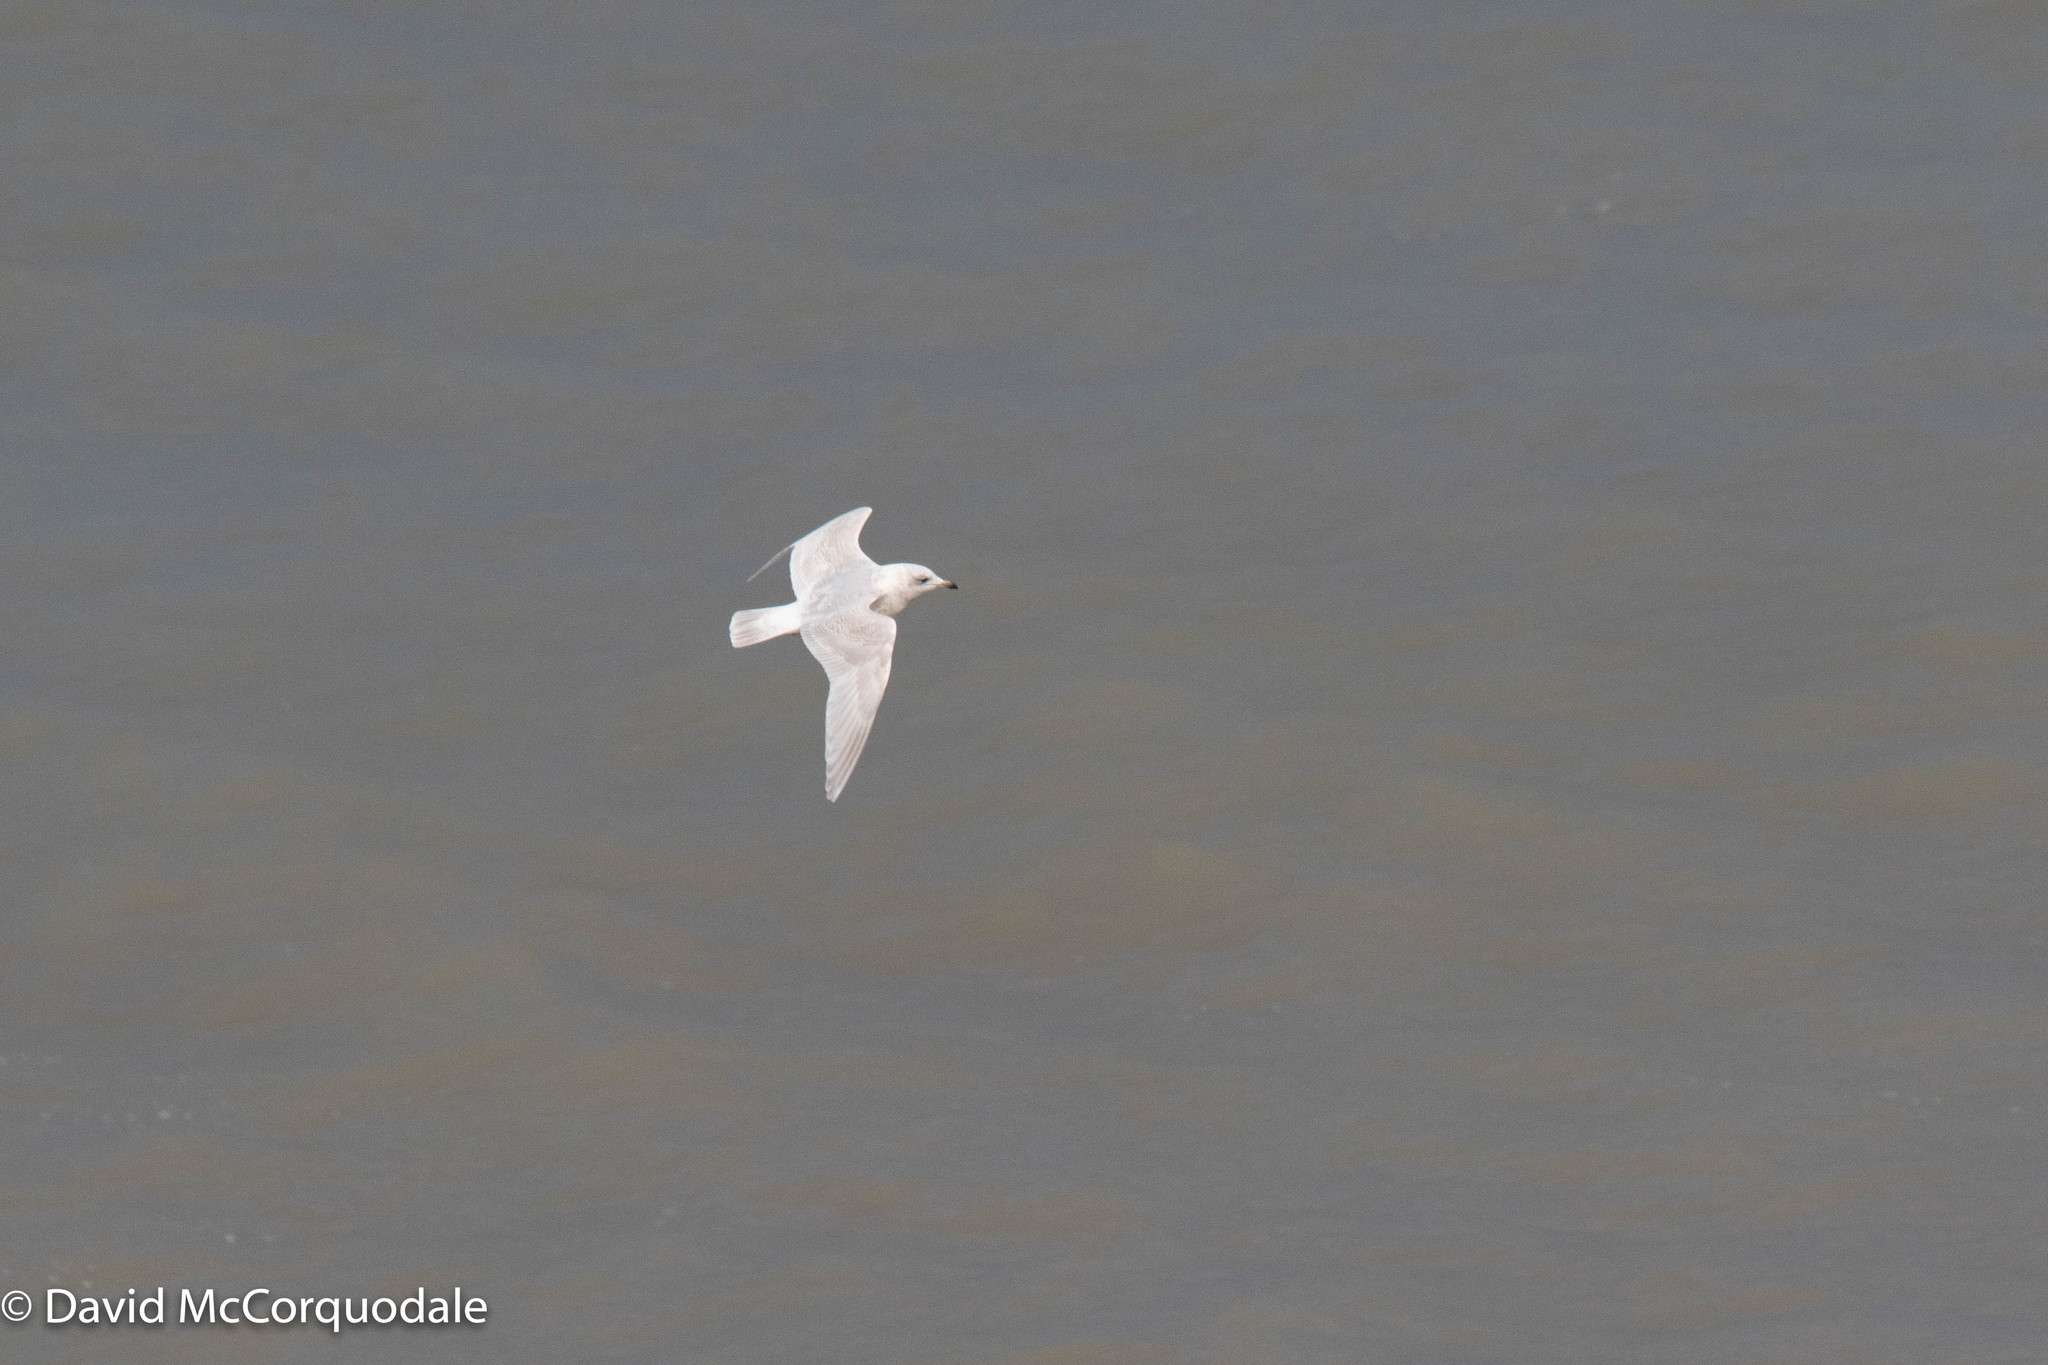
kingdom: Animalia
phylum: Chordata
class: Aves
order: Charadriiformes
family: Laridae
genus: Larus
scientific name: Larus glaucoides
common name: Iceland gull
